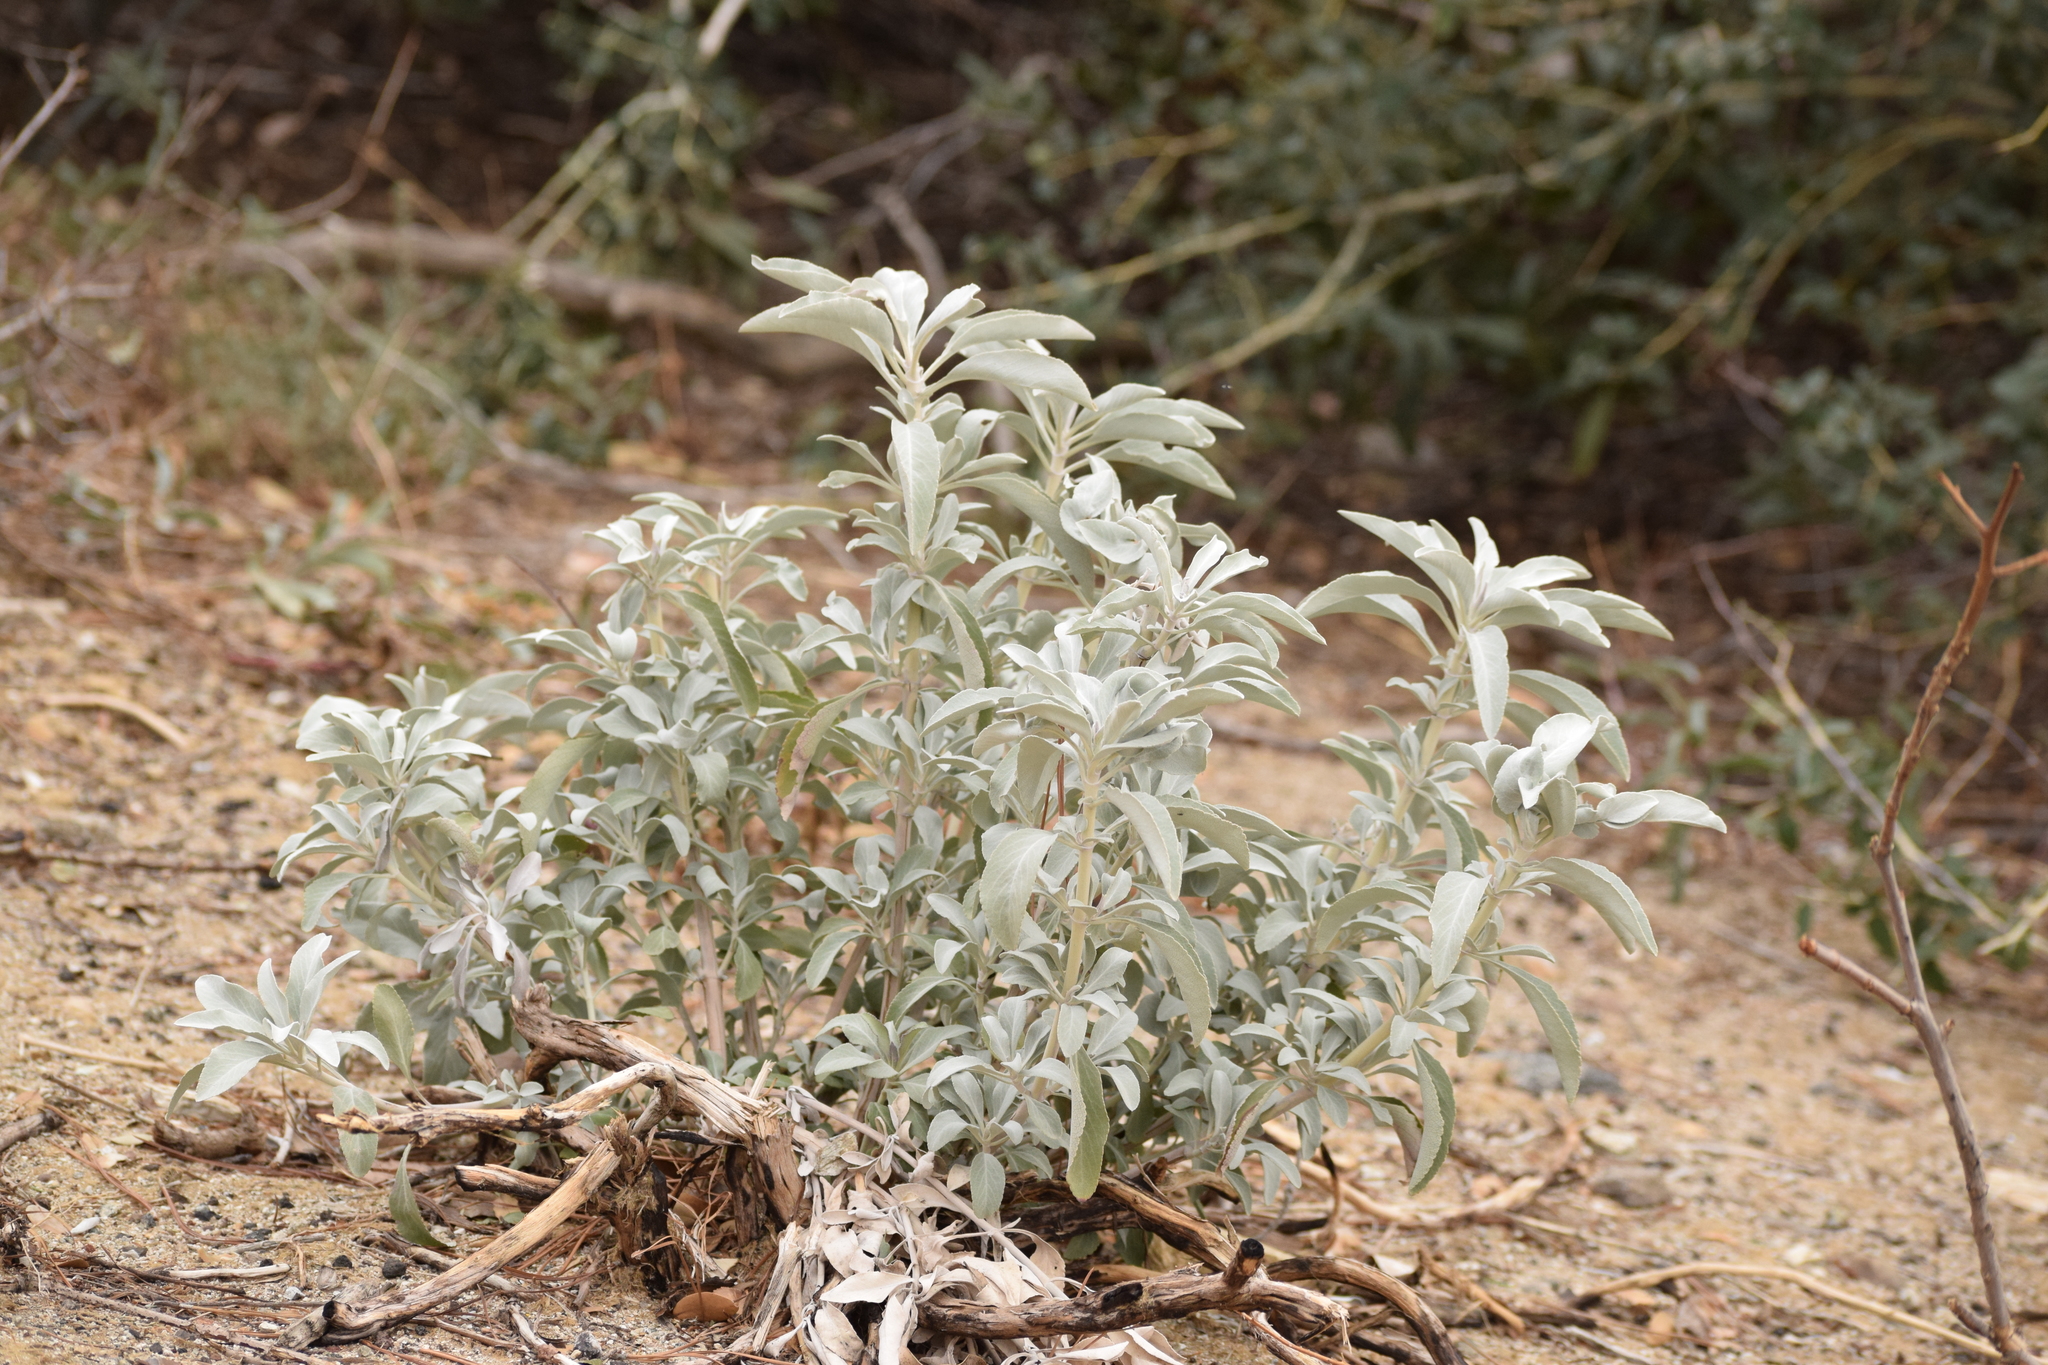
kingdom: Plantae
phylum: Tracheophyta
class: Magnoliopsida
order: Lamiales
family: Lamiaceae
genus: Salvia
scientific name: Salvia apiana
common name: White sage
